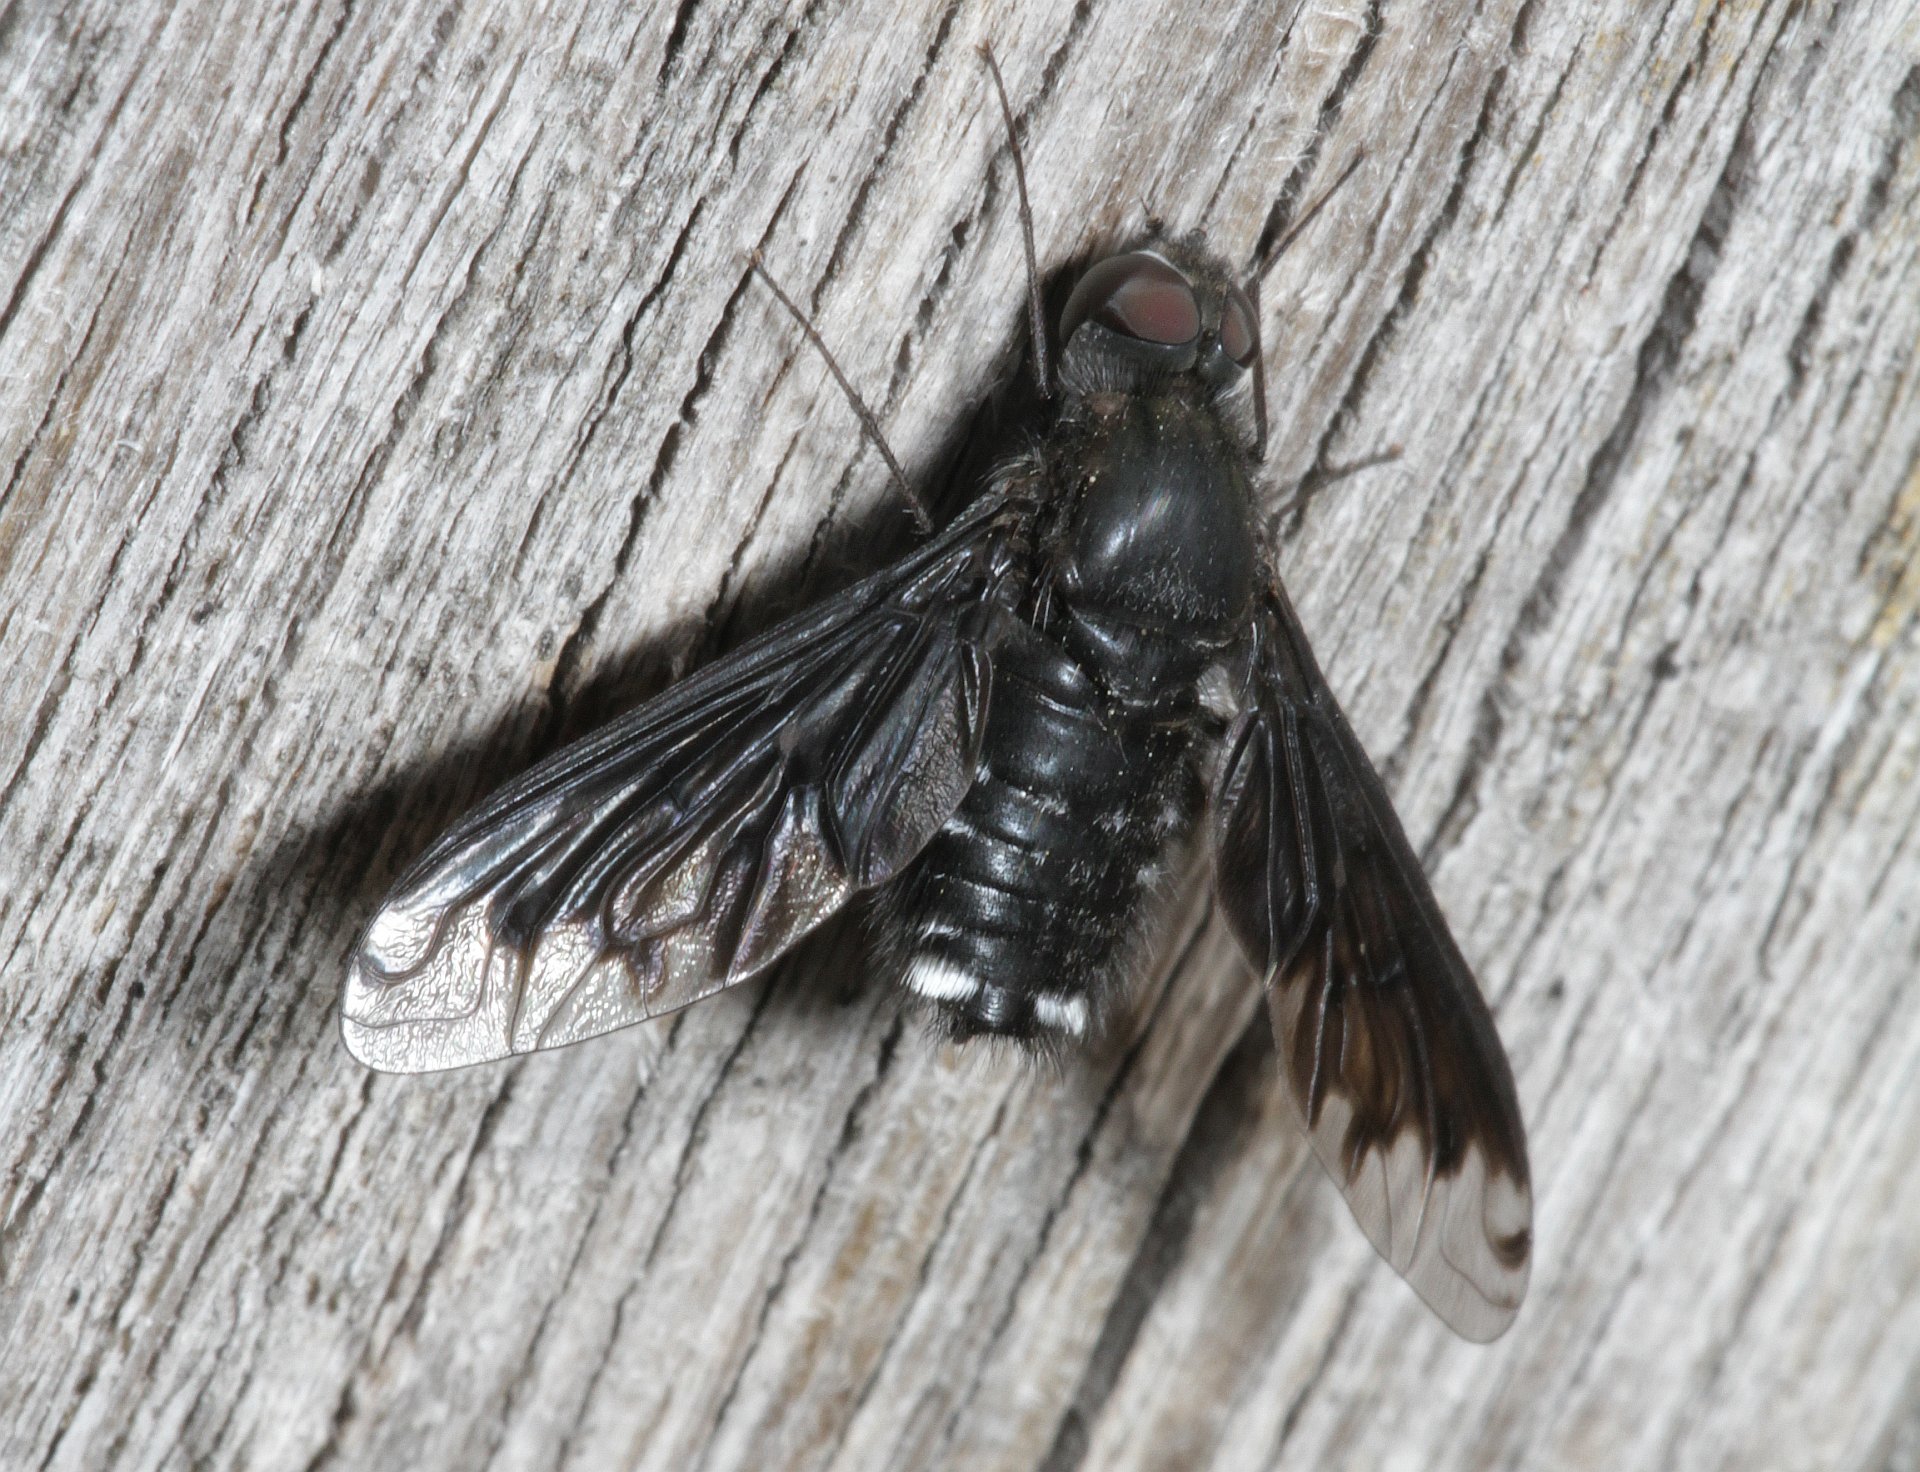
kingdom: Animalia
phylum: Arthropoda
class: Insecta
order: Diptera
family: Bombyliidae
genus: Anthrax
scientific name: Anthrax anthrax
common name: Anthracite bee-fly
